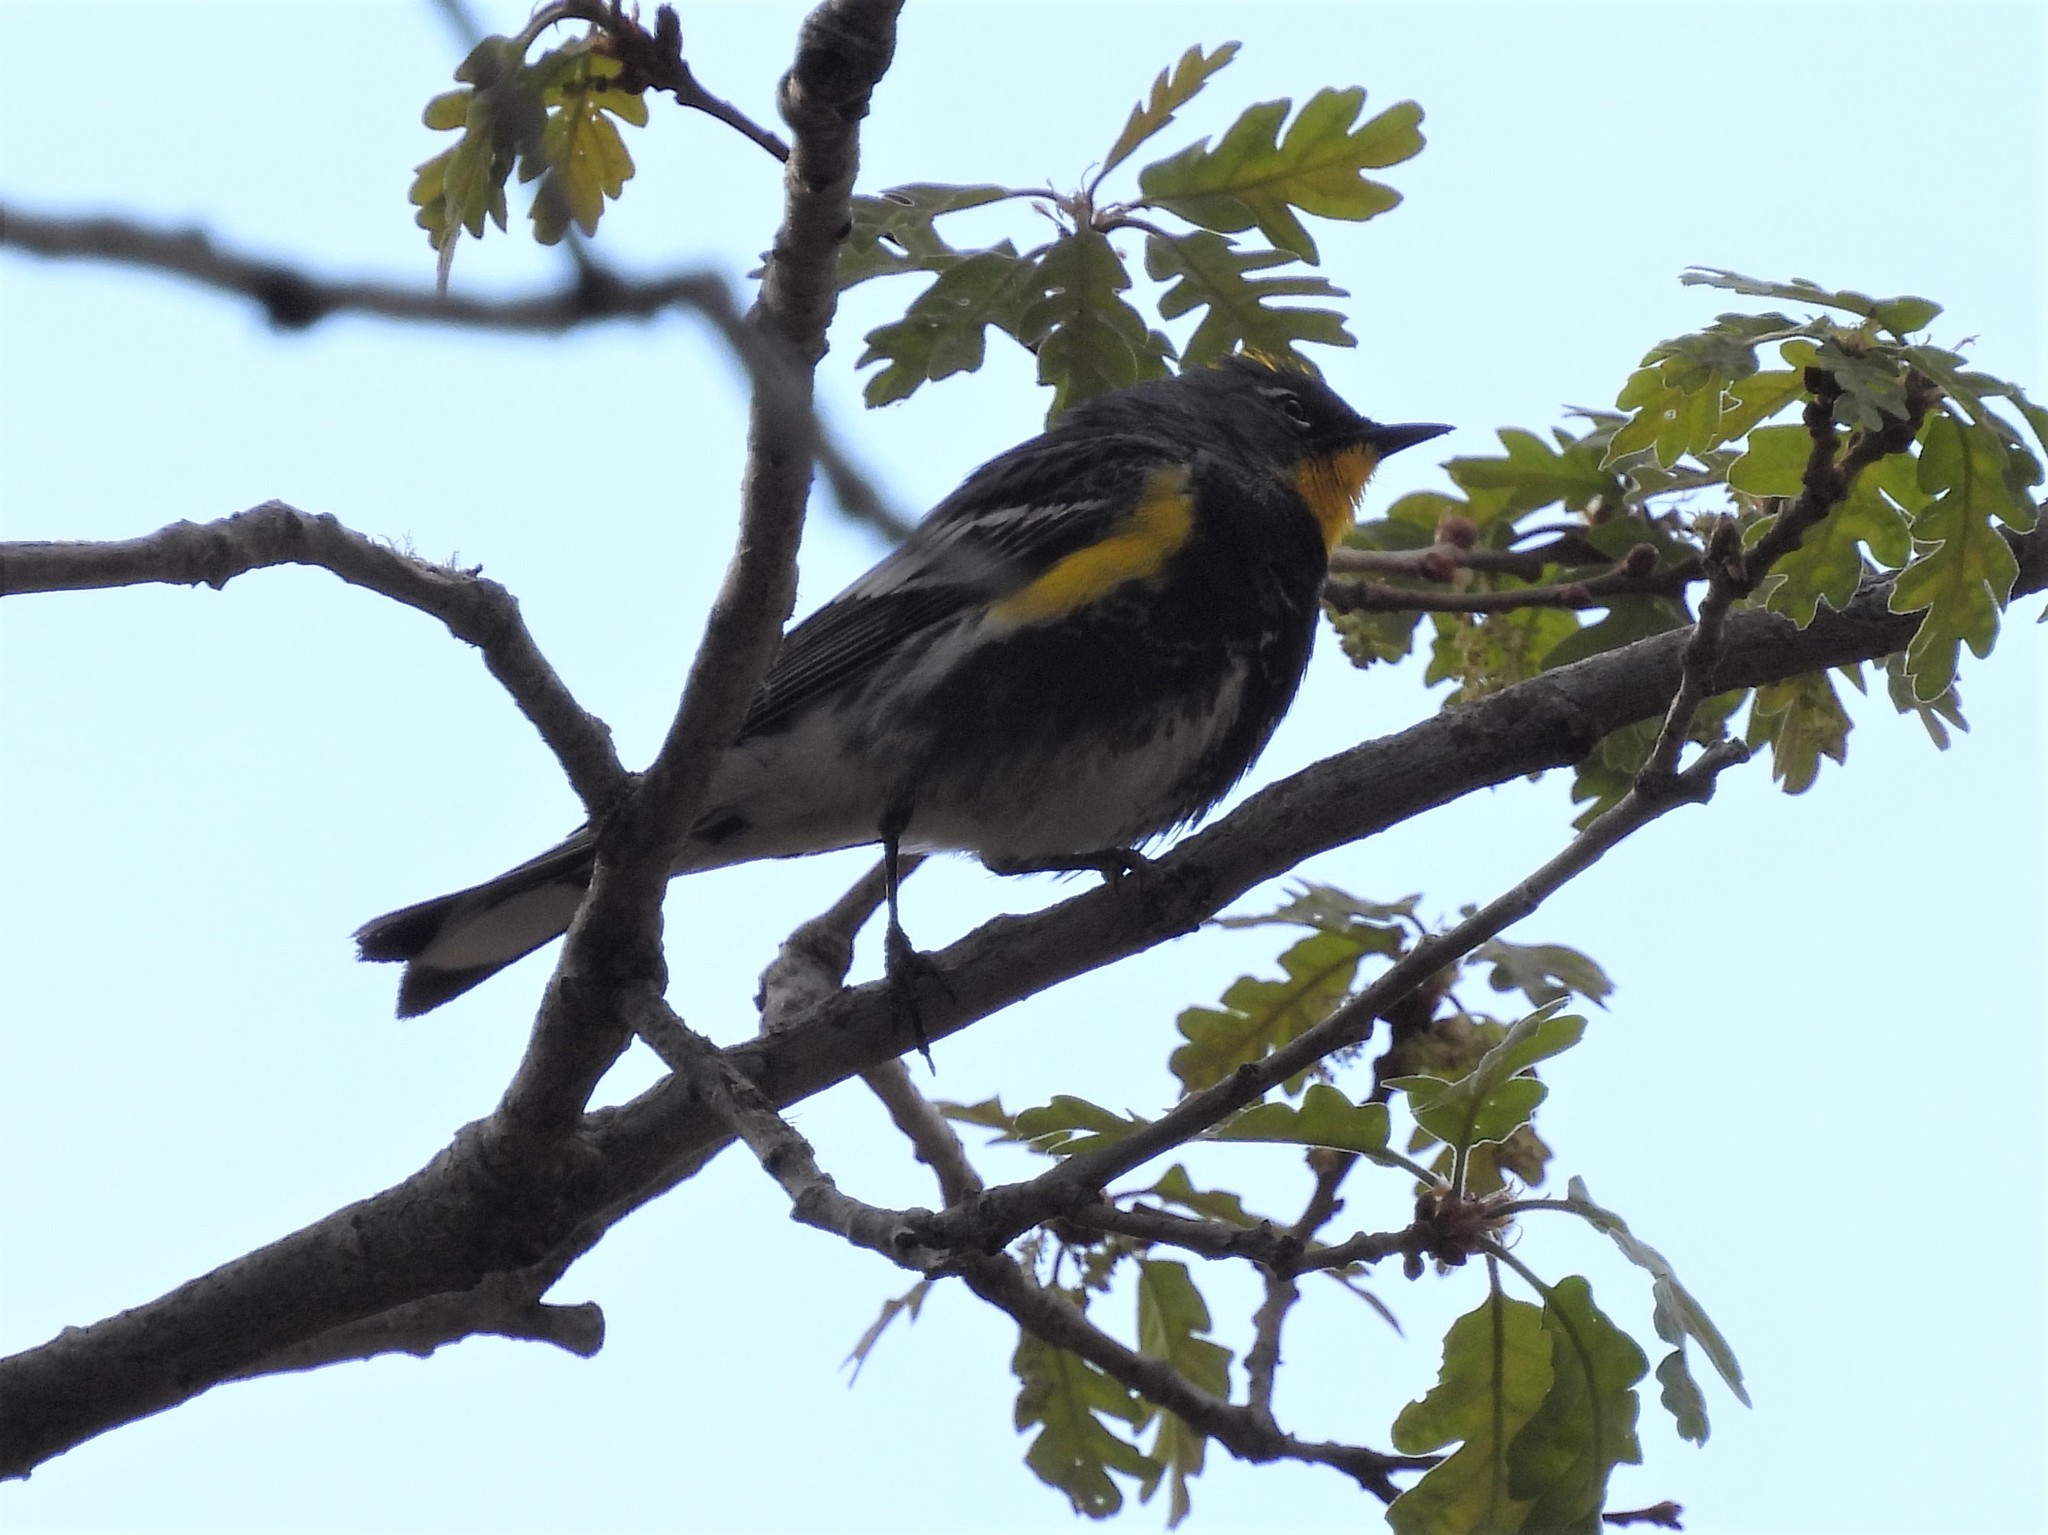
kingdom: Animalia
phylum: Chordata
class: Aves
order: Passeriformes
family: Parulidae
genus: Setophaga
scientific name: Setophaga coronata
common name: Myrtle warbler
